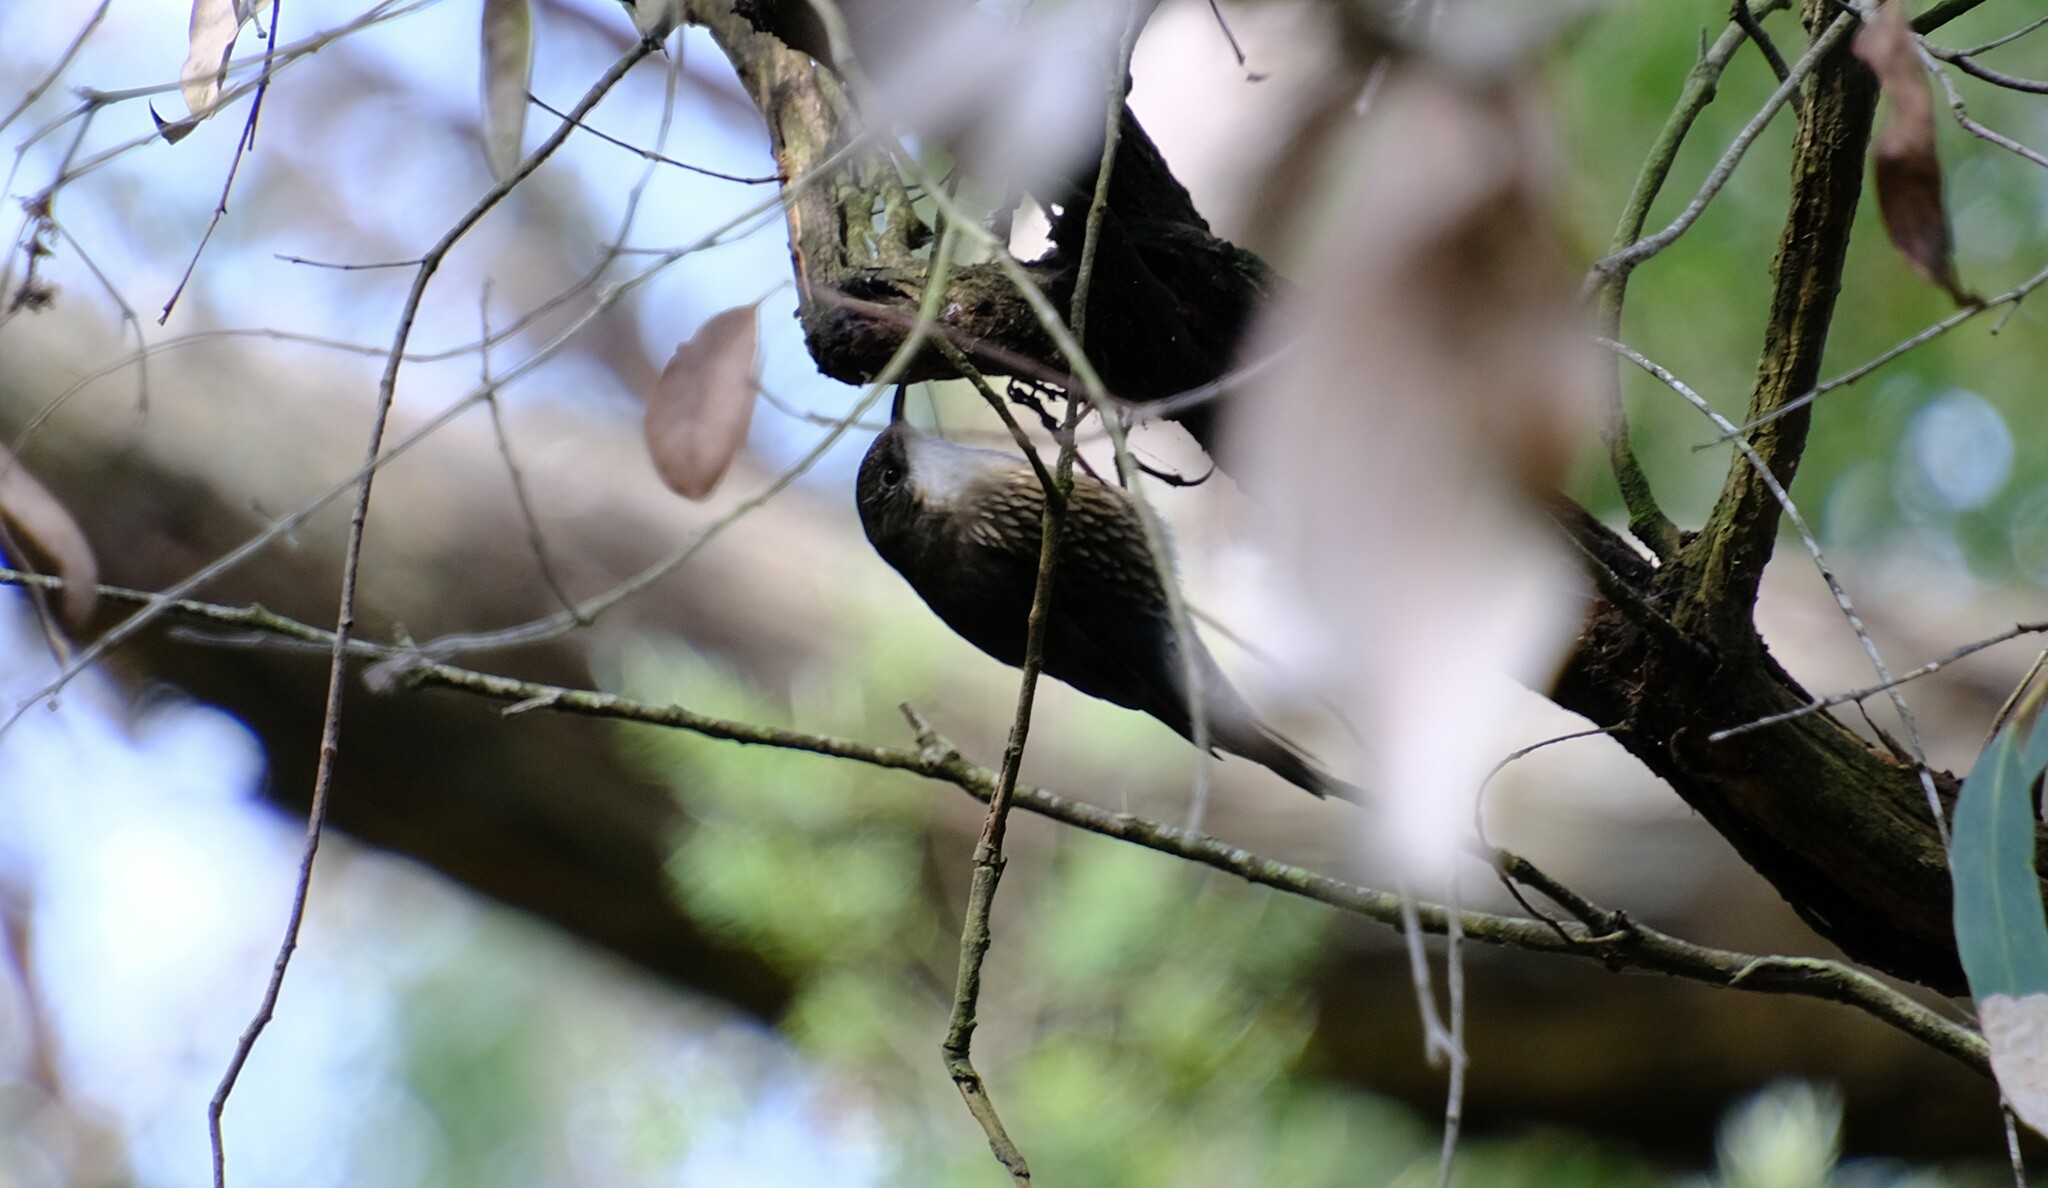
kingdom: Animalia
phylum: Chordata
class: Aves
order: Passeriformes
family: Climacteridae
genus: Cormobates
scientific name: Cormobates leucophaea
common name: White-throated treecreeper
